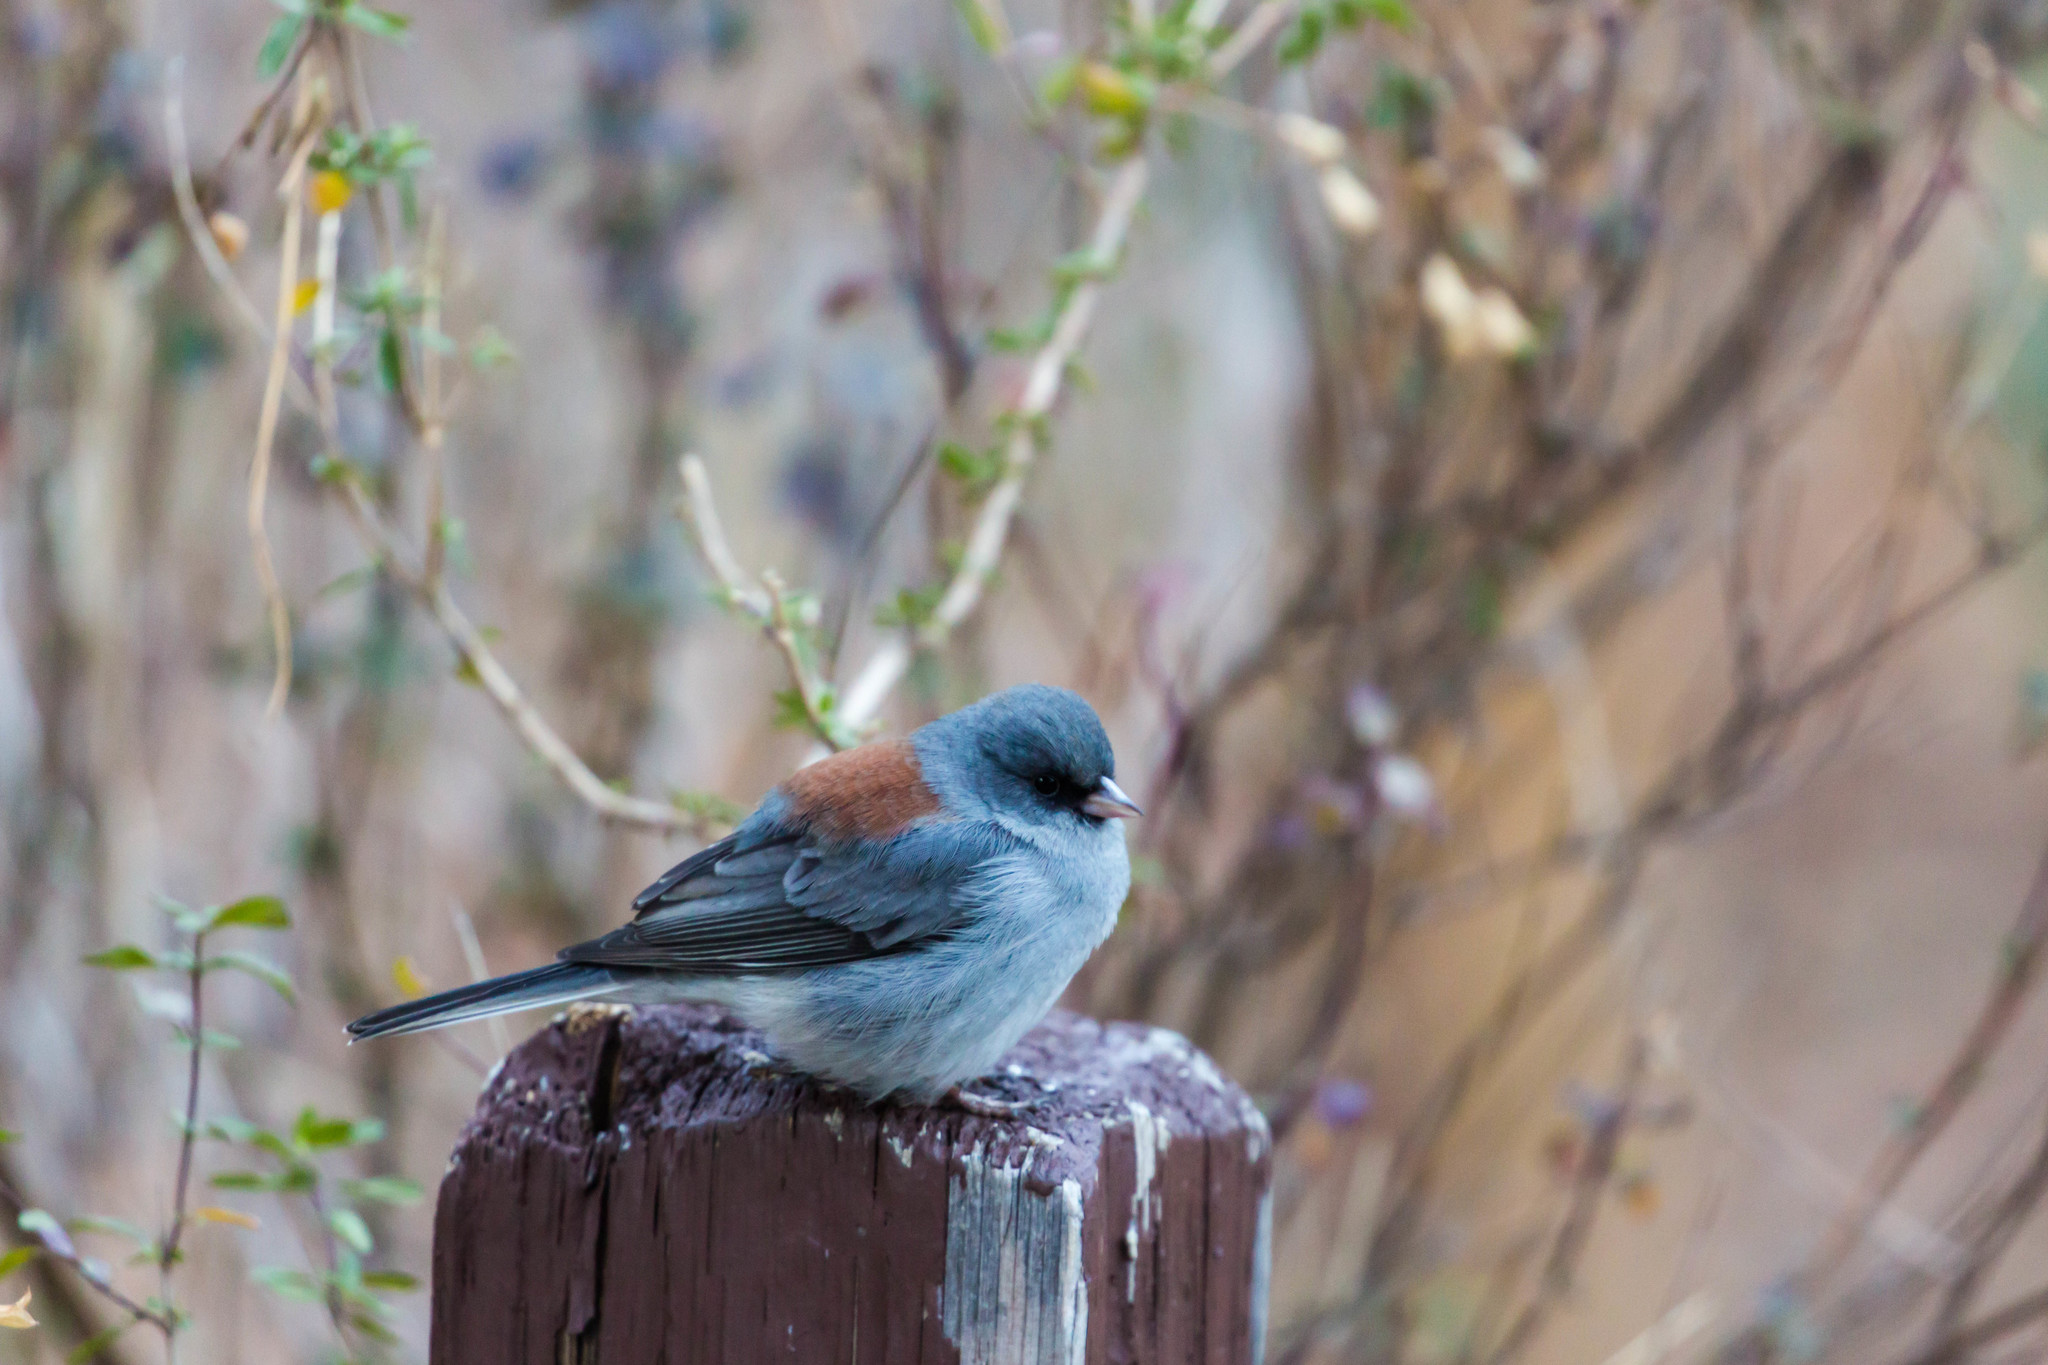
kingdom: Animalia
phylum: Chordata
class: Aves
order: Passeriformes
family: Passerellidae
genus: Junco
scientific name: Junco hyemalis
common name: Dark-eyed junco
